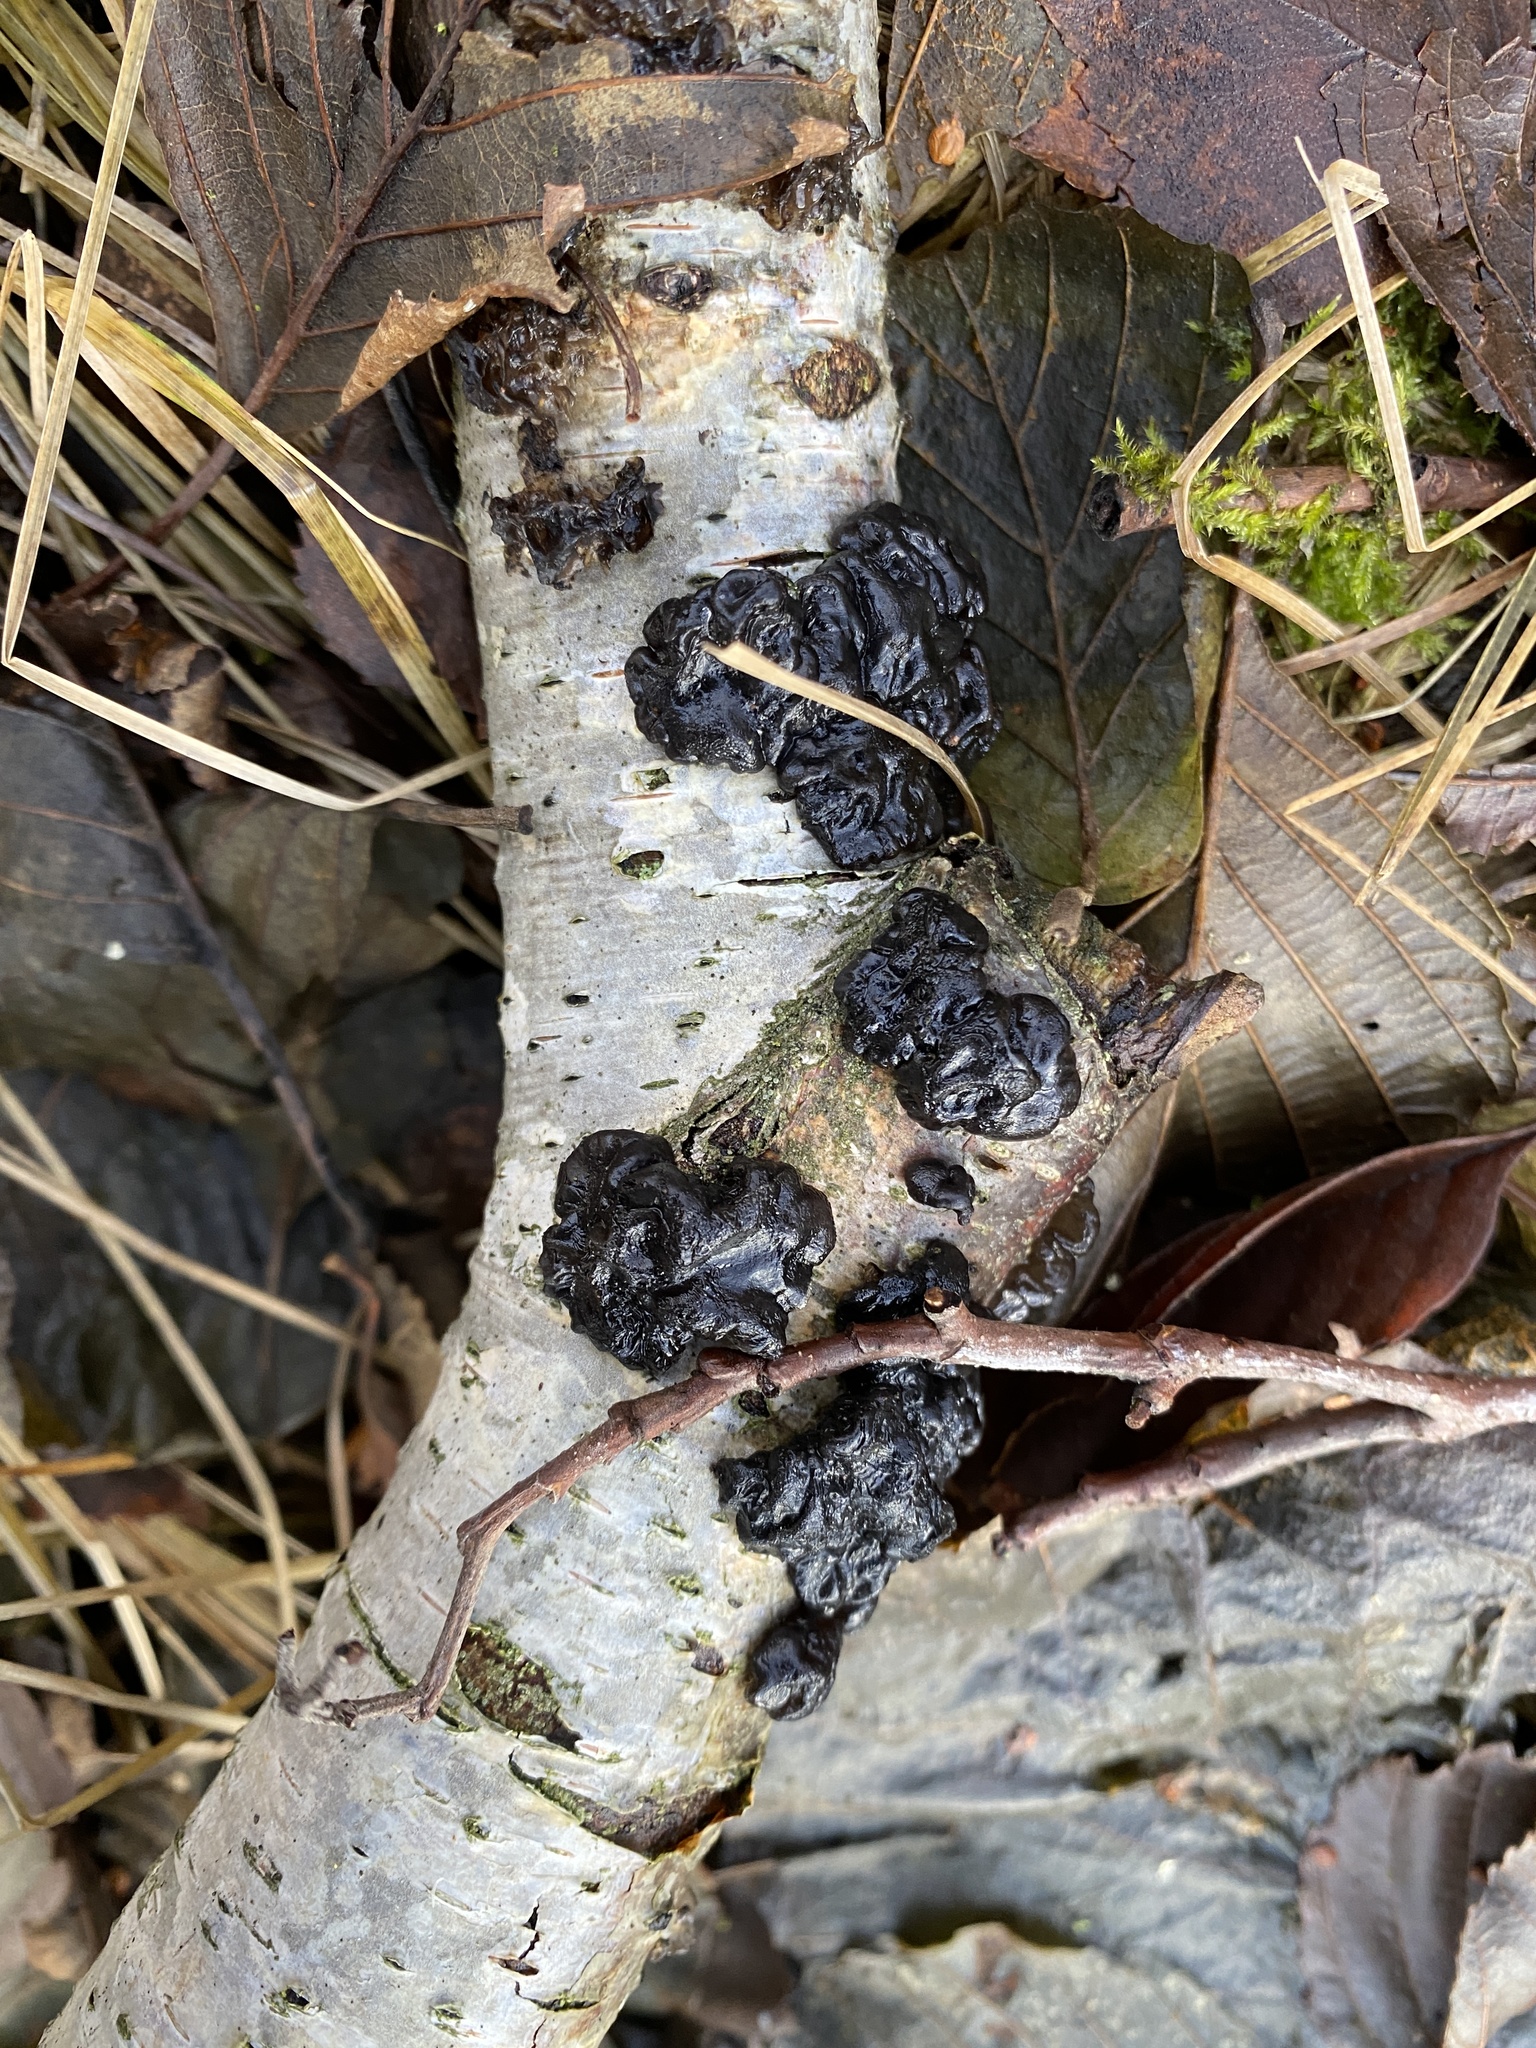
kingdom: Fungi
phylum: Basidiomycota
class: Agaricomycetes
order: Auriculariales
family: Auriculariaceae
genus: Exidia
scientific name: Exidia nigricans
